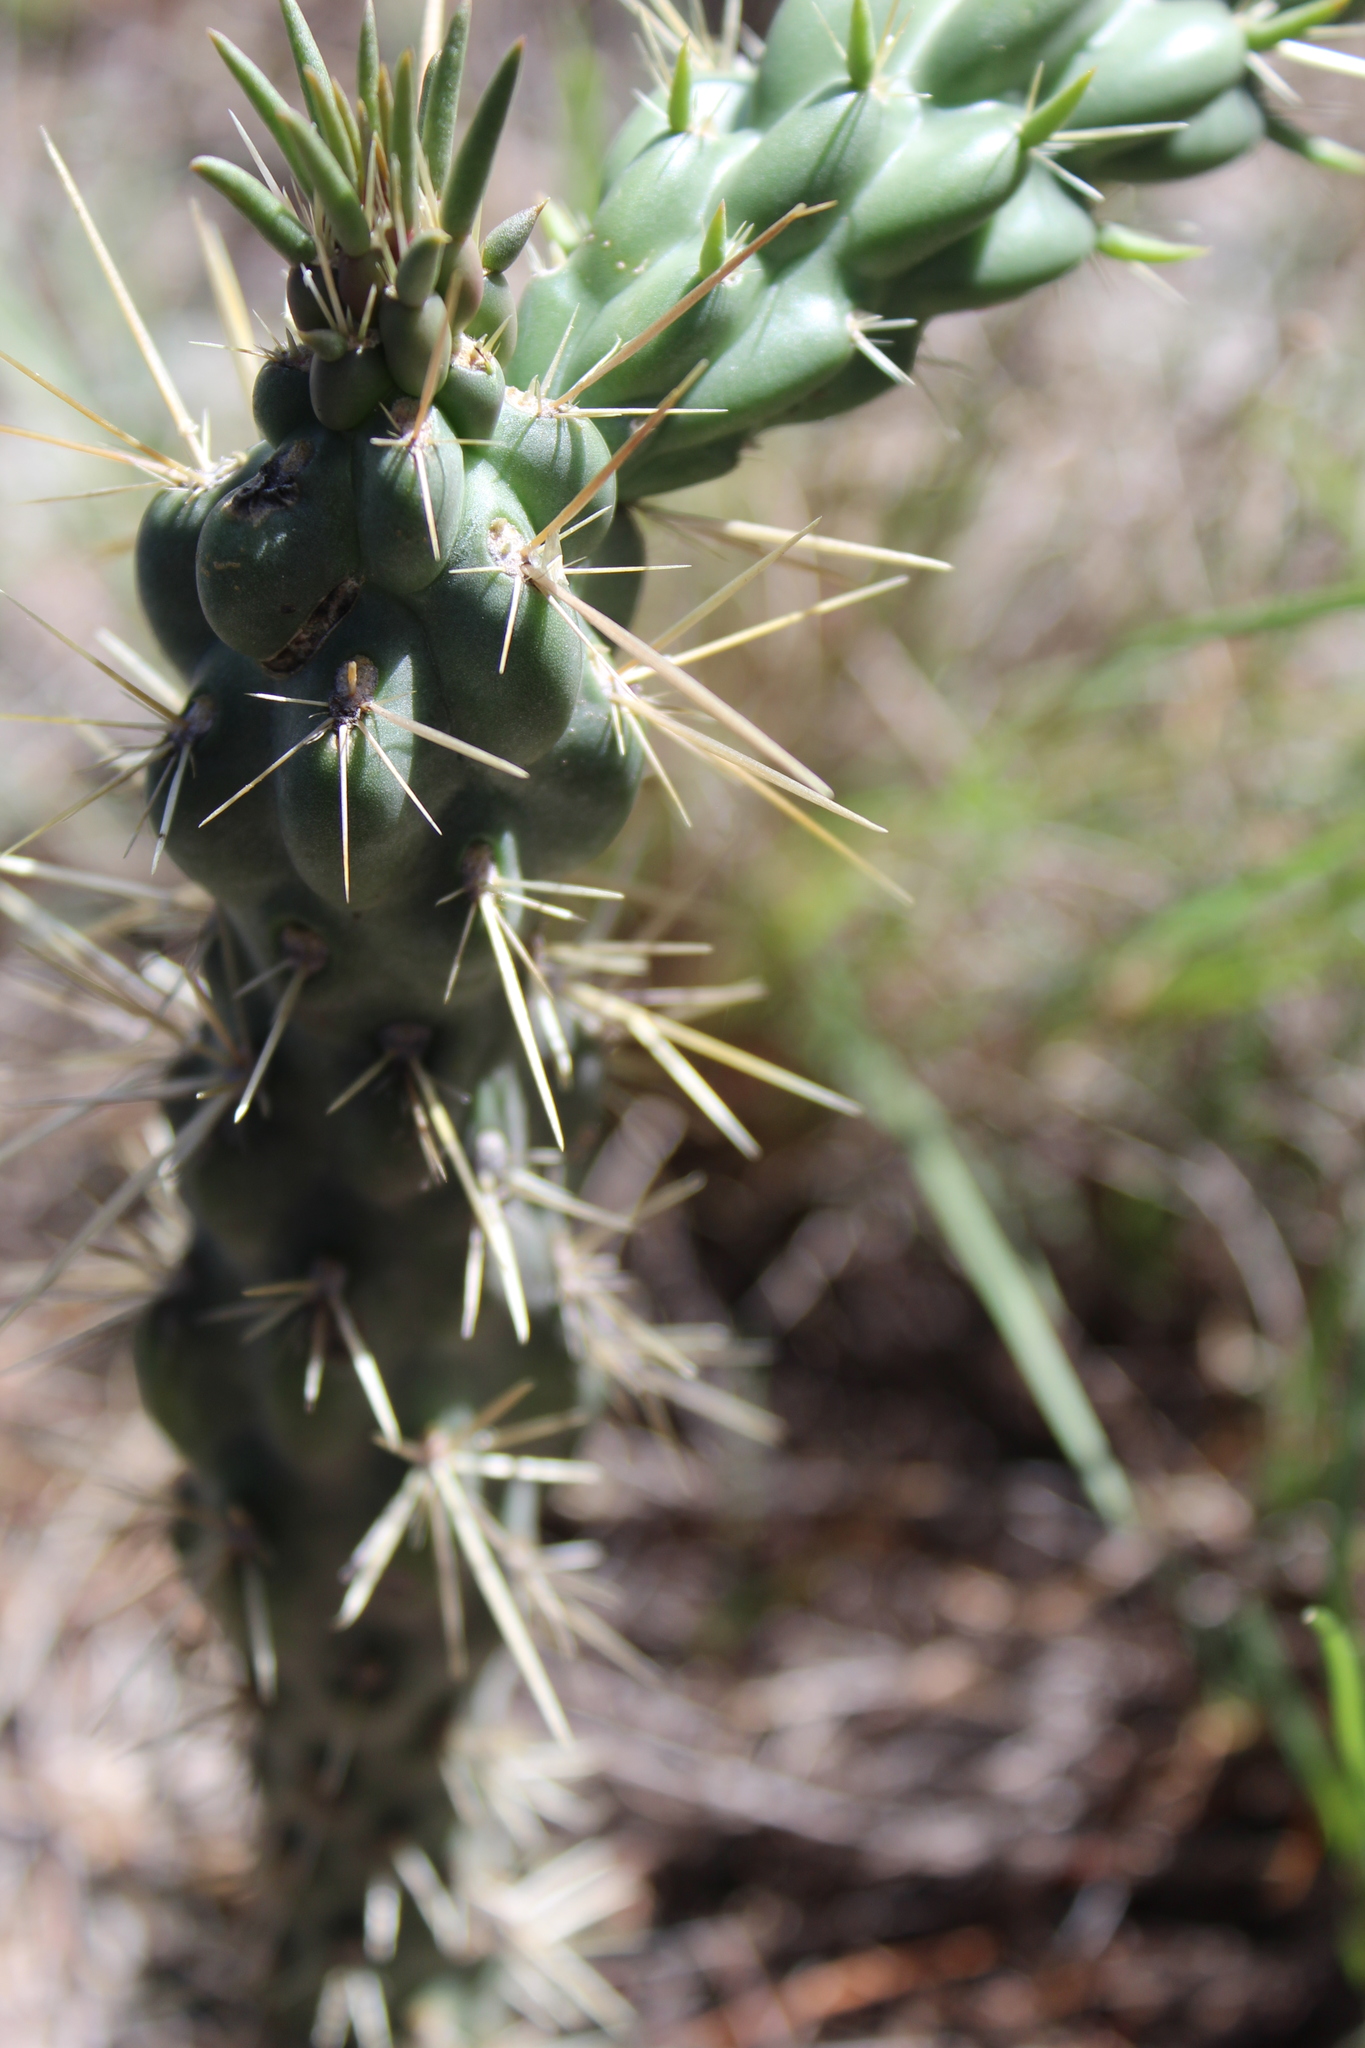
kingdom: Plantae
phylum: Tracheophyta
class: Magnoliopsida
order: Caryophyllales
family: Cactaceae
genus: Cylindropuntia
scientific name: Cylindropuntia imbricata
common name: Candelabrum cactus
